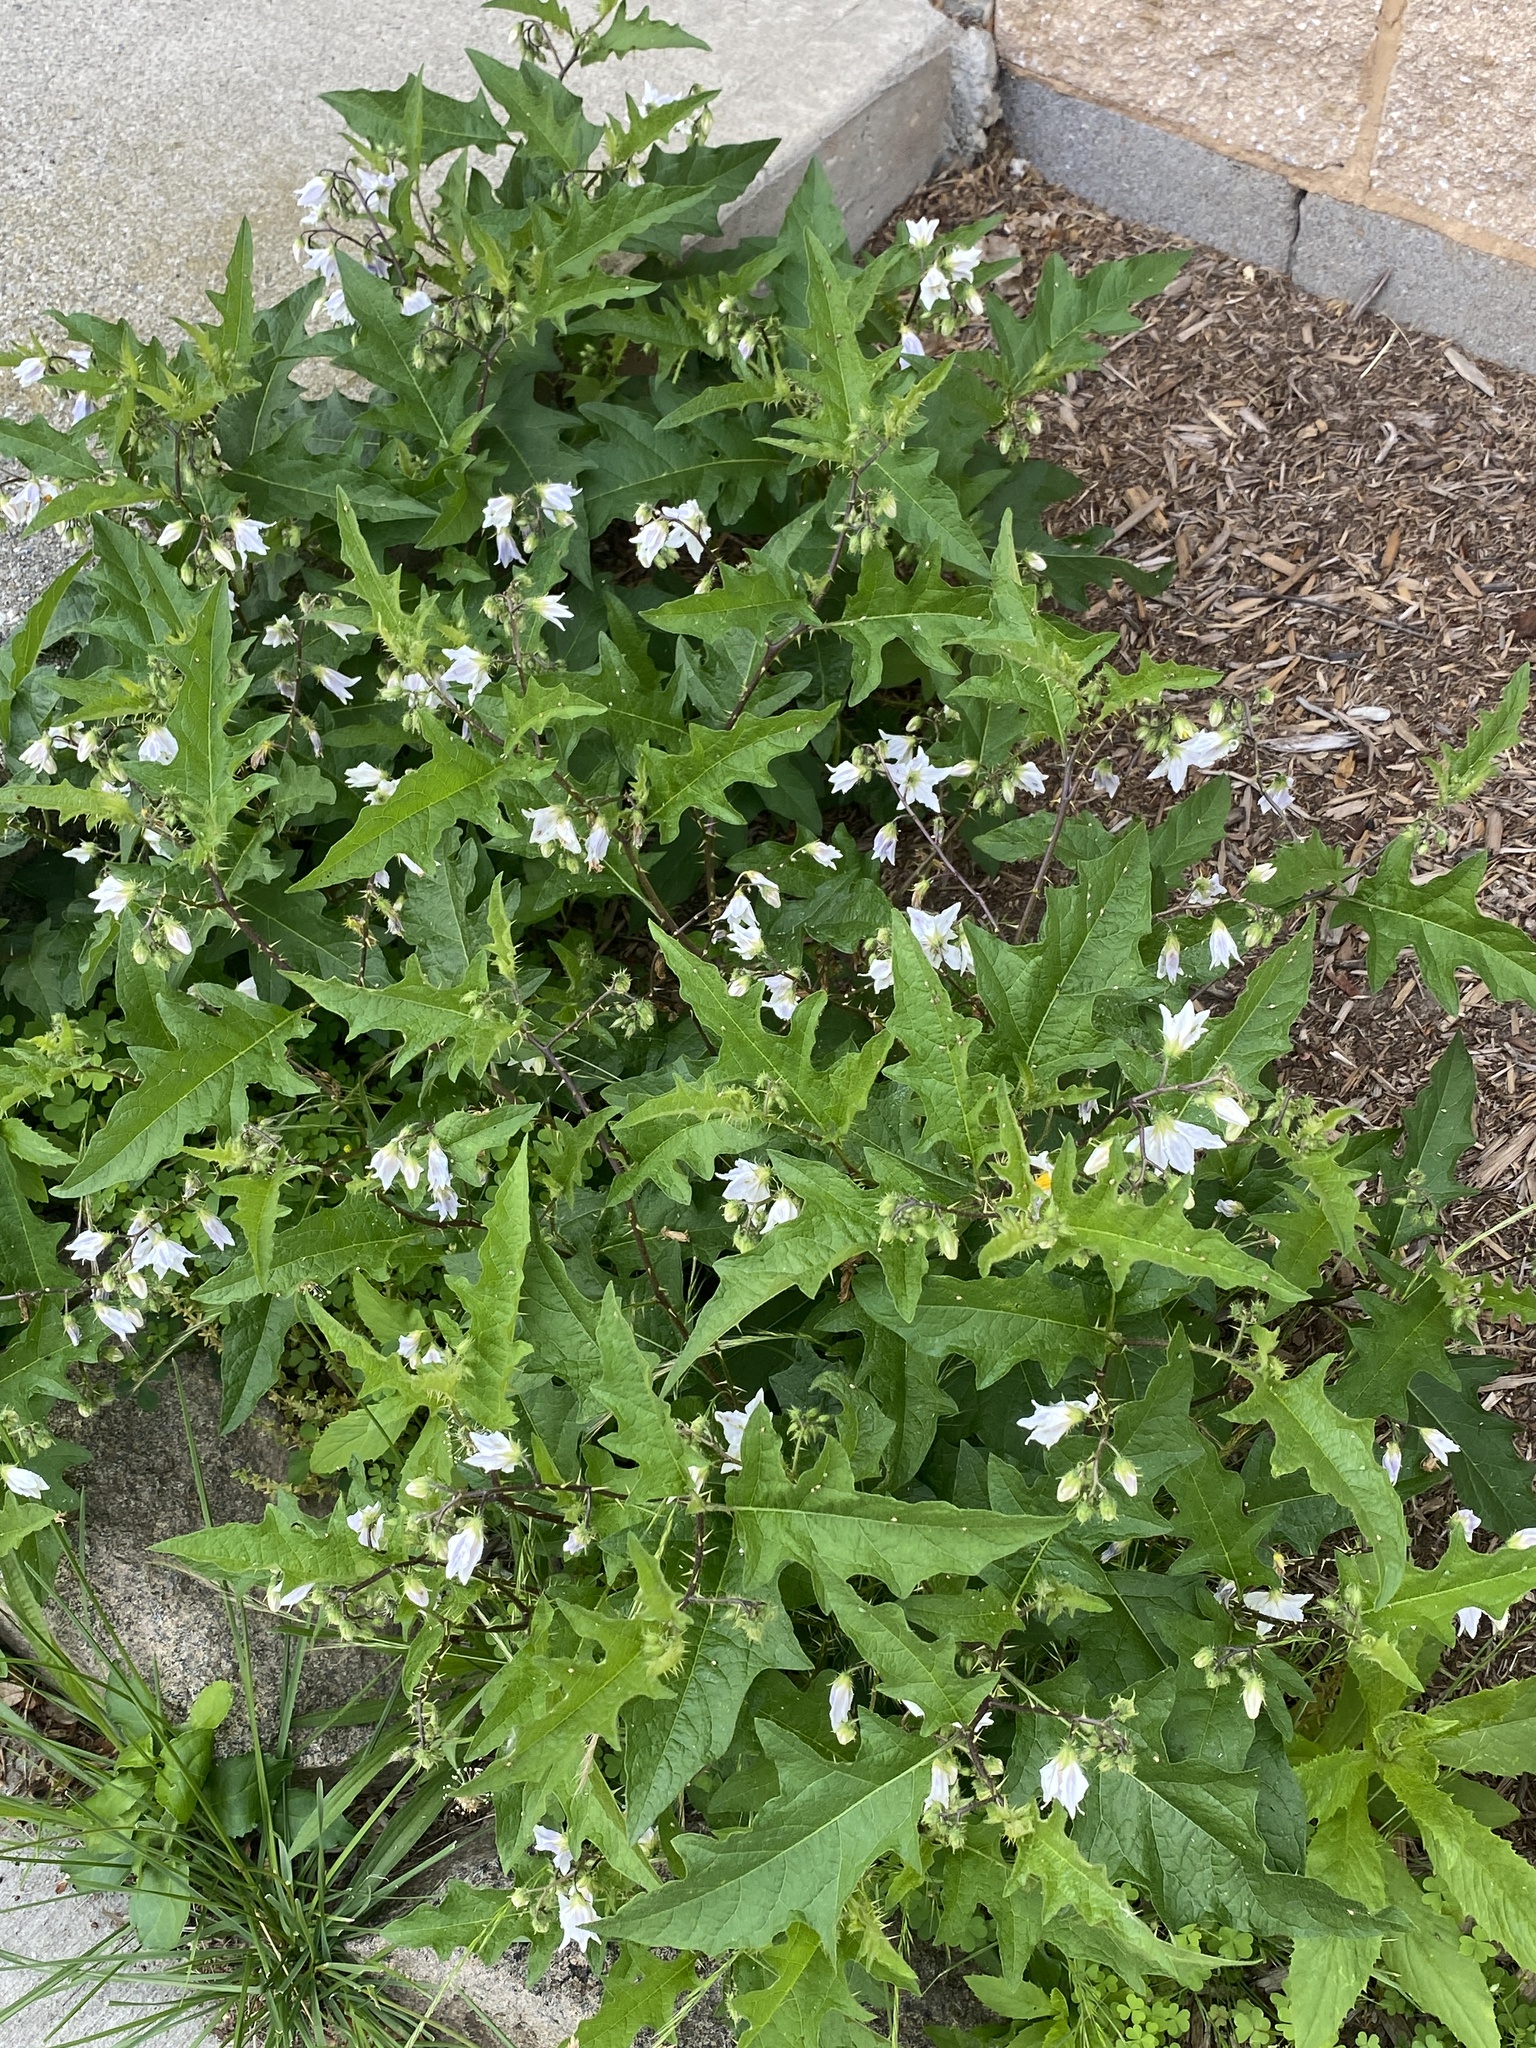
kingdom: Plantae
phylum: Tracheophyta
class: Magnoliopsida
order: Solanales
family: Solanaceae
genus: Solanum
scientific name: Solanum carolinense
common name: Horse-nettle
